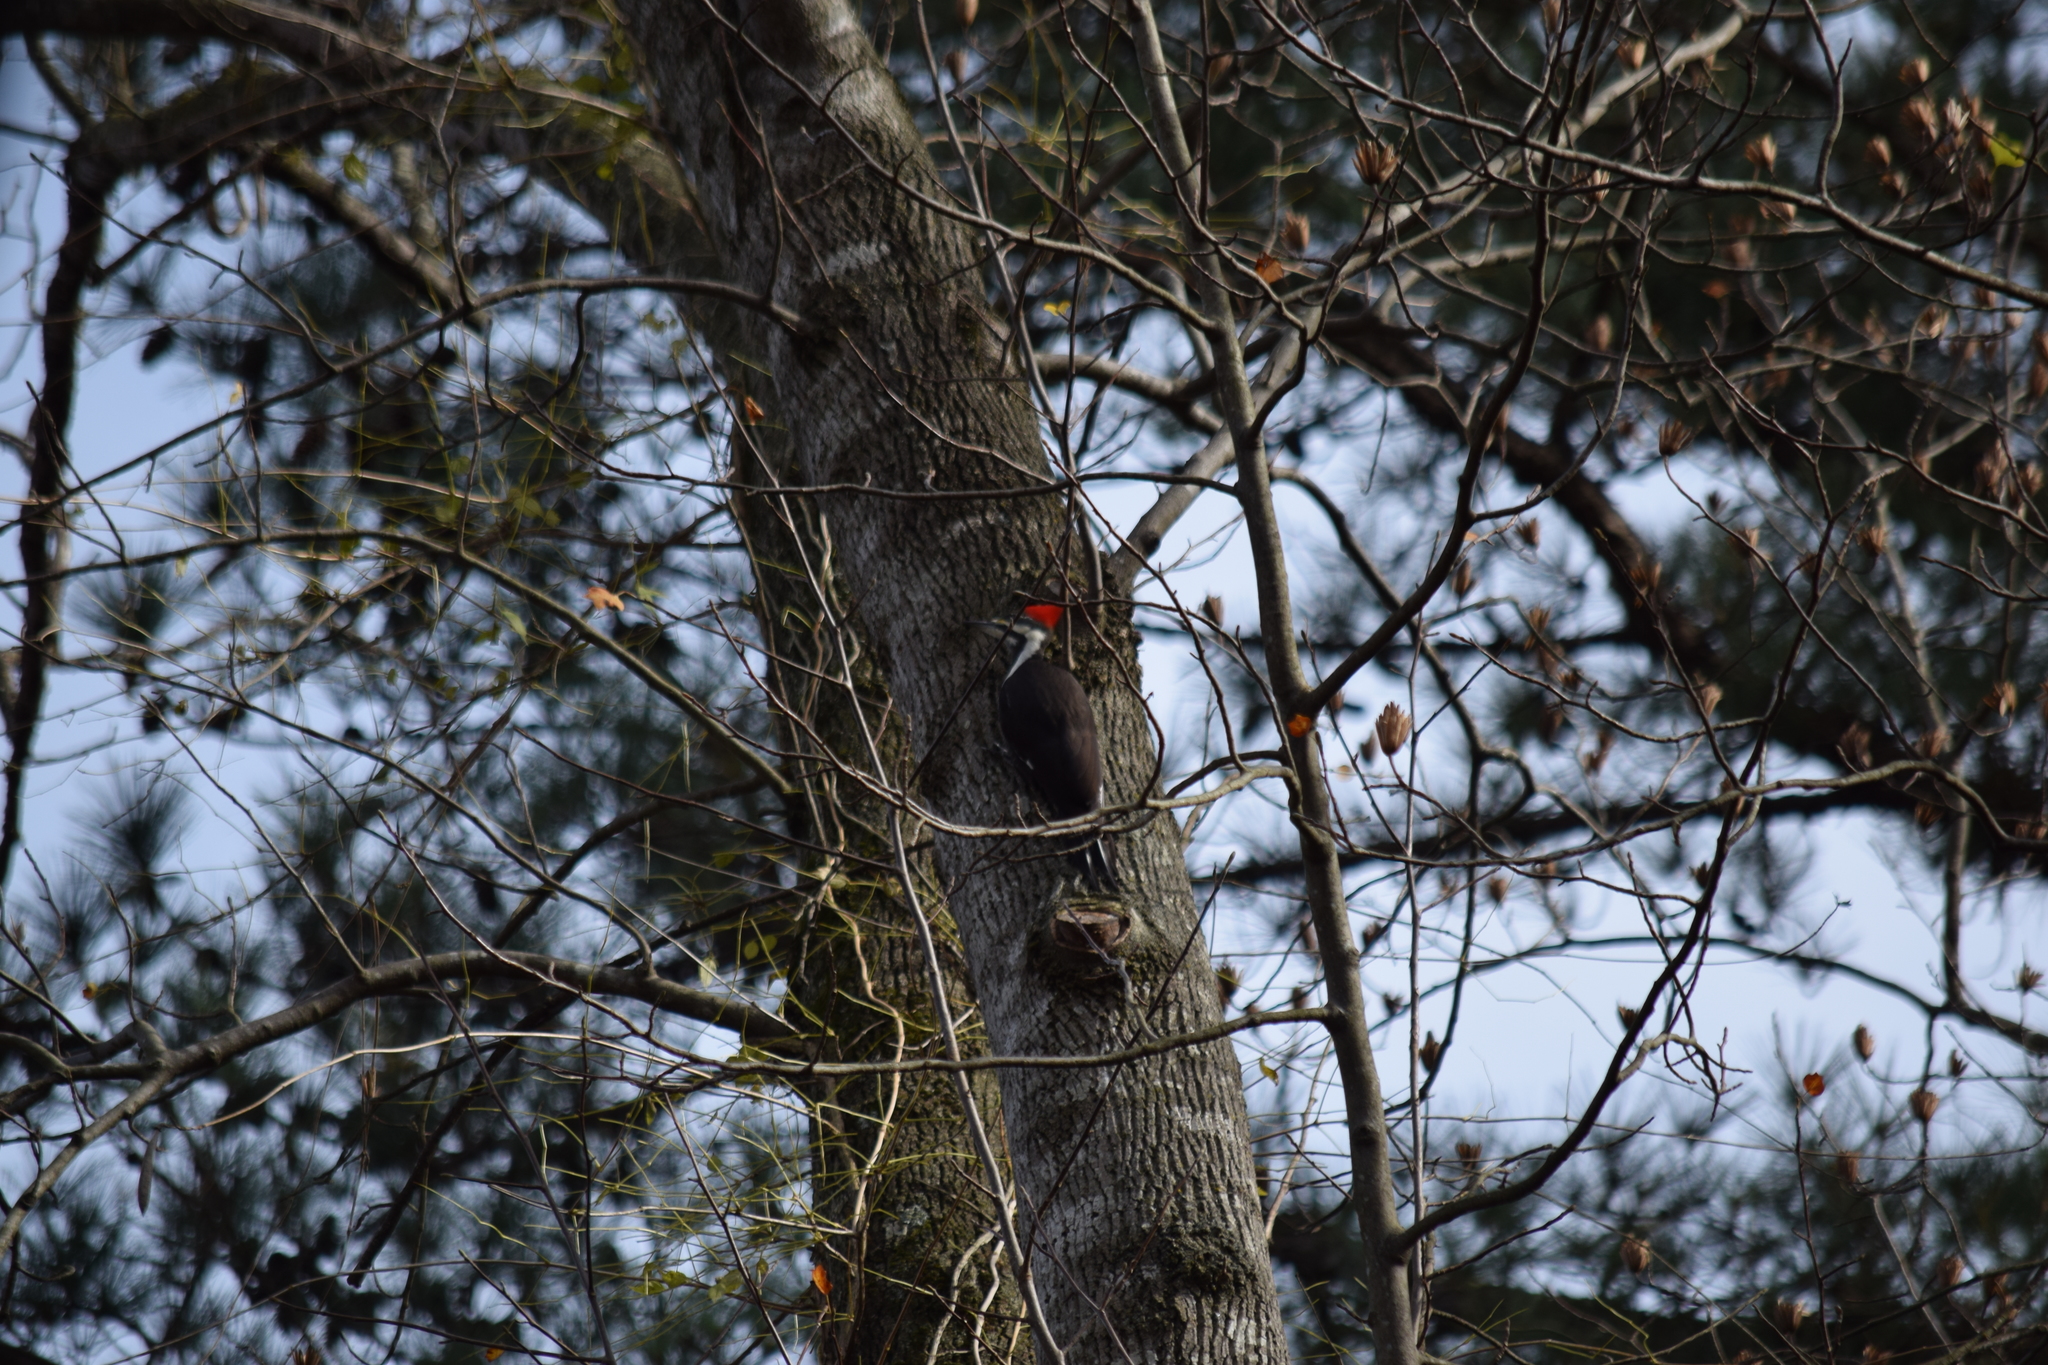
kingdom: Animalia
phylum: Chordata
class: Aves
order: Piciformes
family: Picidae
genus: Dryocopus
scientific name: Dryocopus pileatus
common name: Pileated woodpecker
